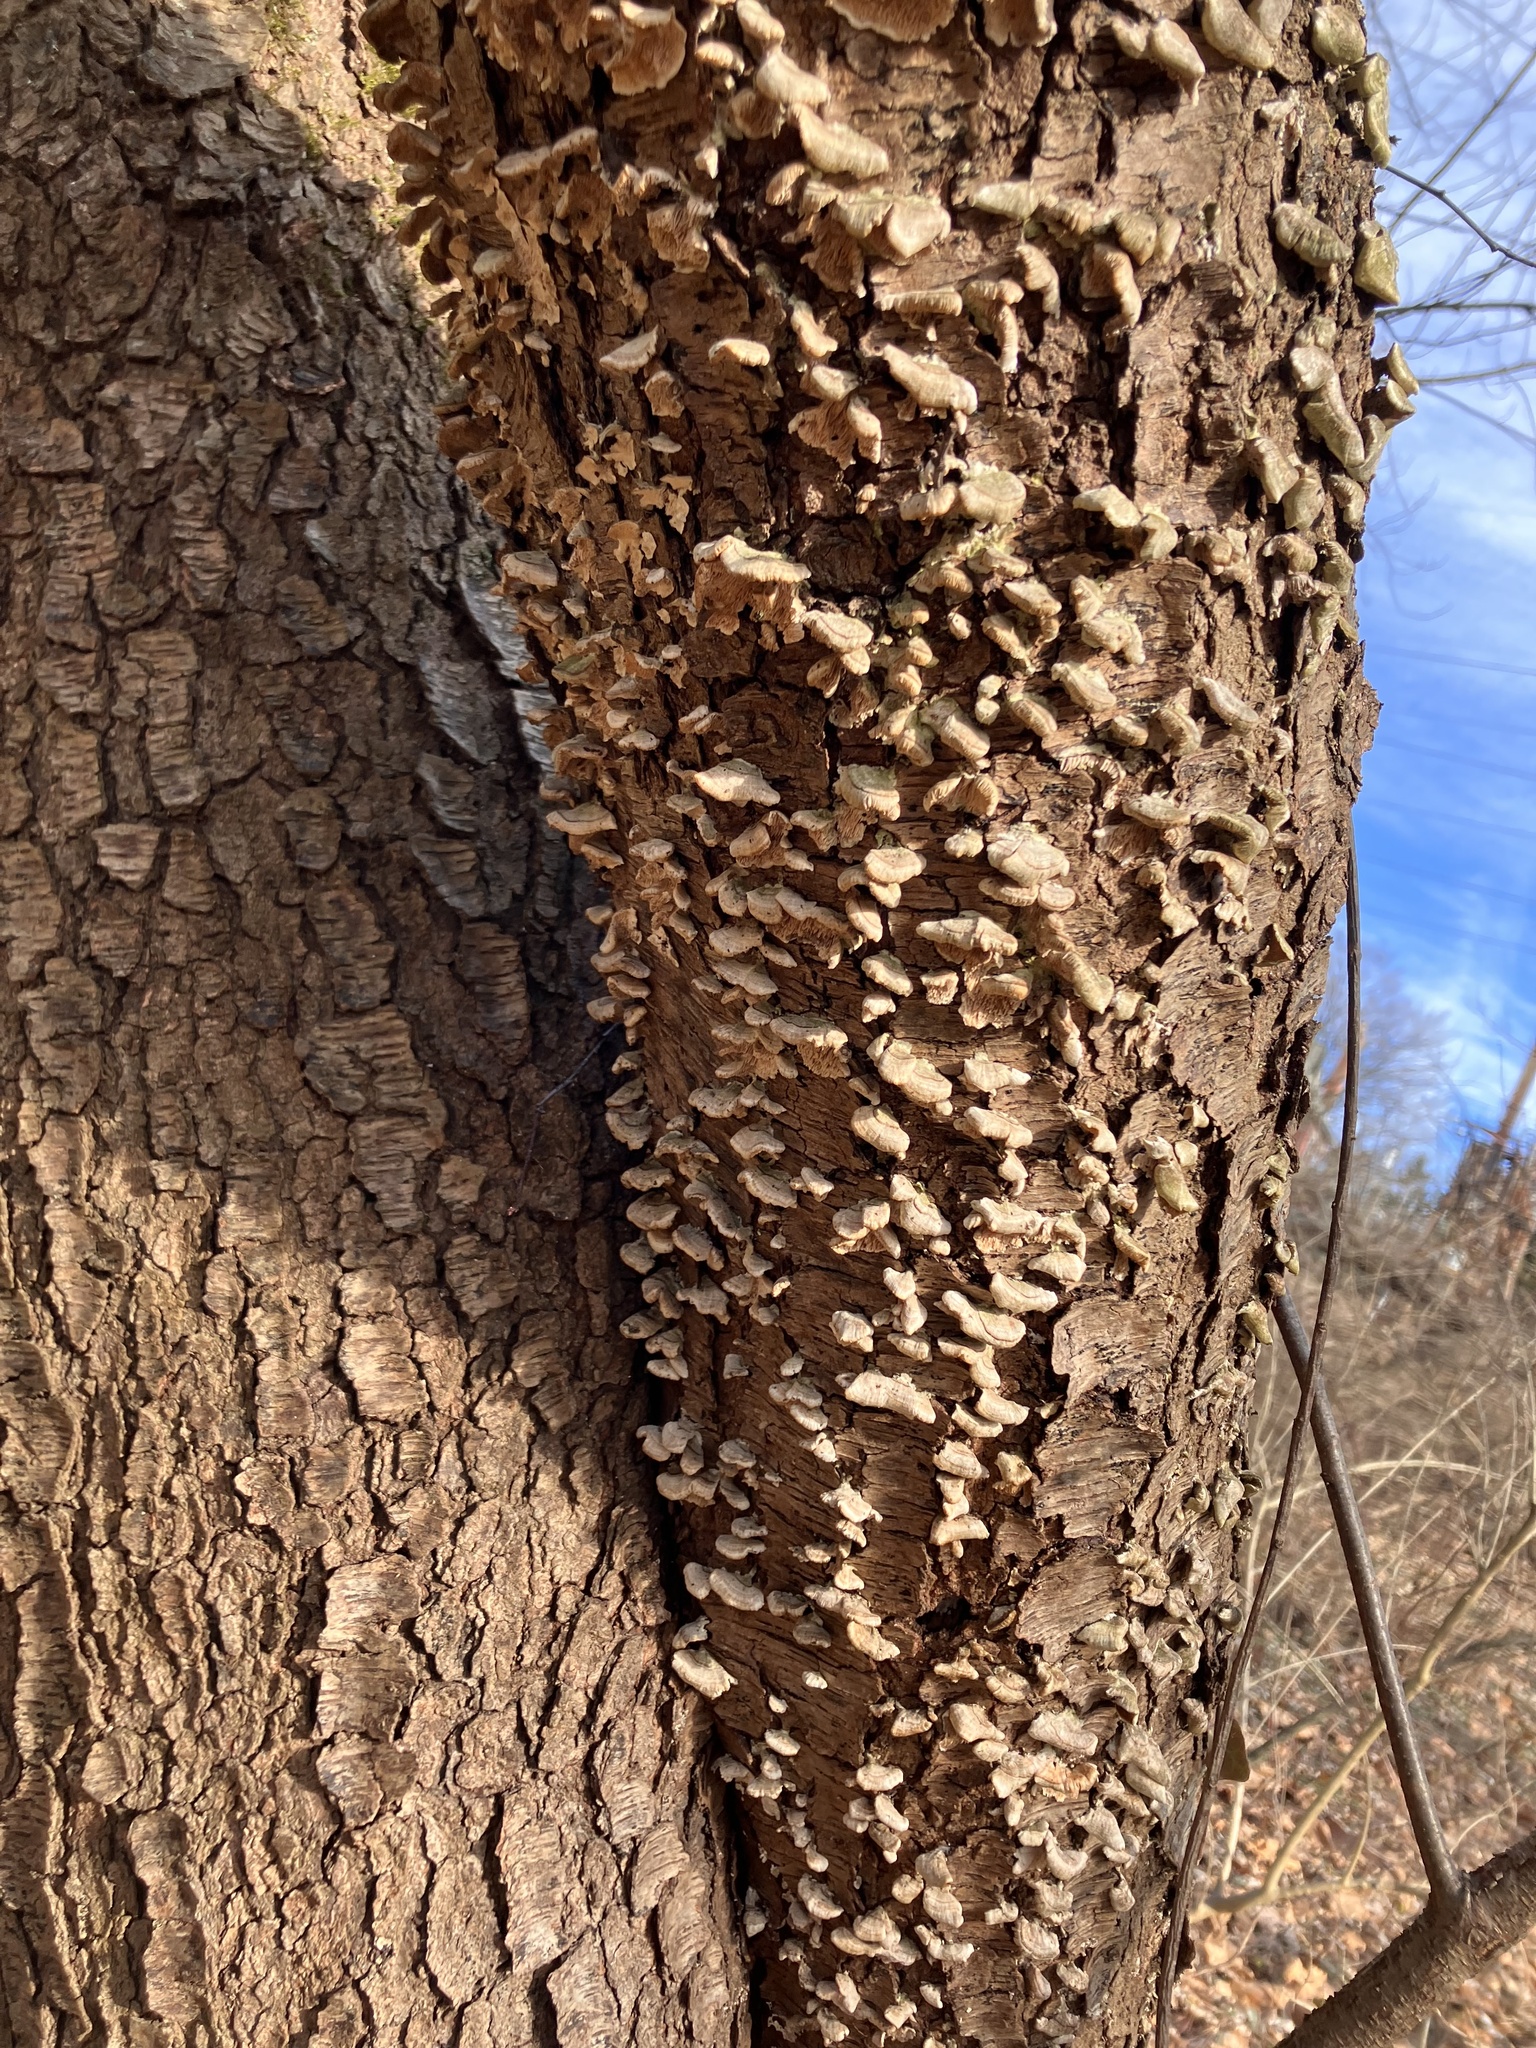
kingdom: Fungi
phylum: Basidiomycota
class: Agaricomycetes
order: Hymenochaetales
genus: Trichaptum
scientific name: Trichaptum biforme
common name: Violet-toothed polypore
